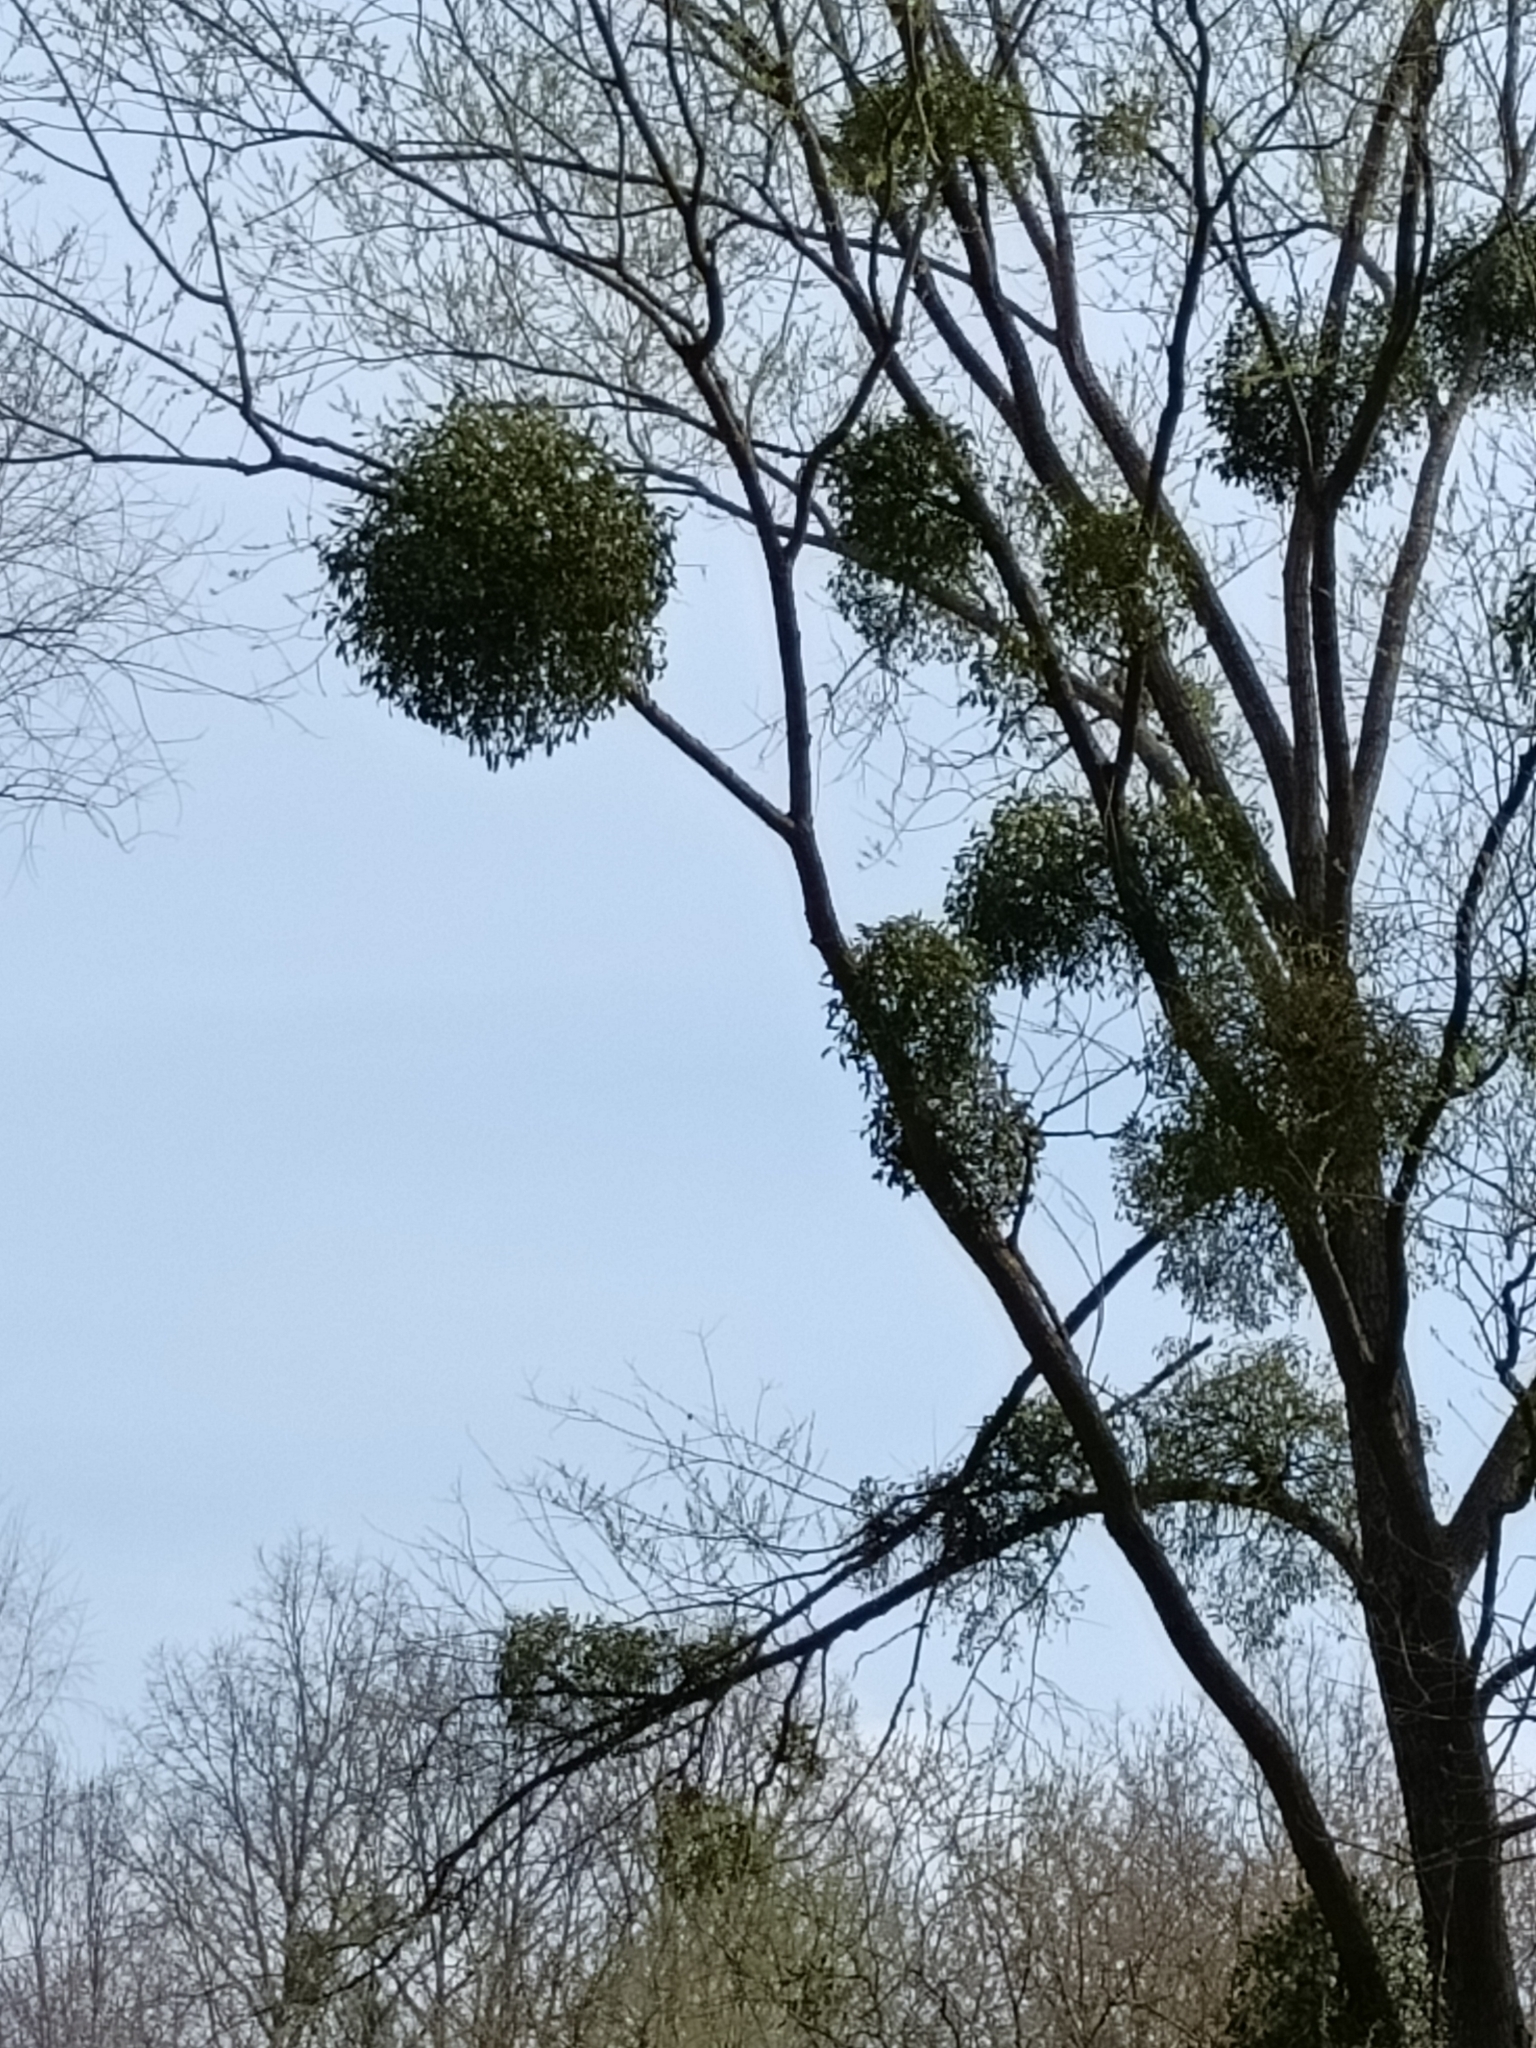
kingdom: Plantae
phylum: Tracheophyta
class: Magnoliopsida
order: Santalales
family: Viscaceae
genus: Viscum
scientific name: Viscum album
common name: Mistletoe
